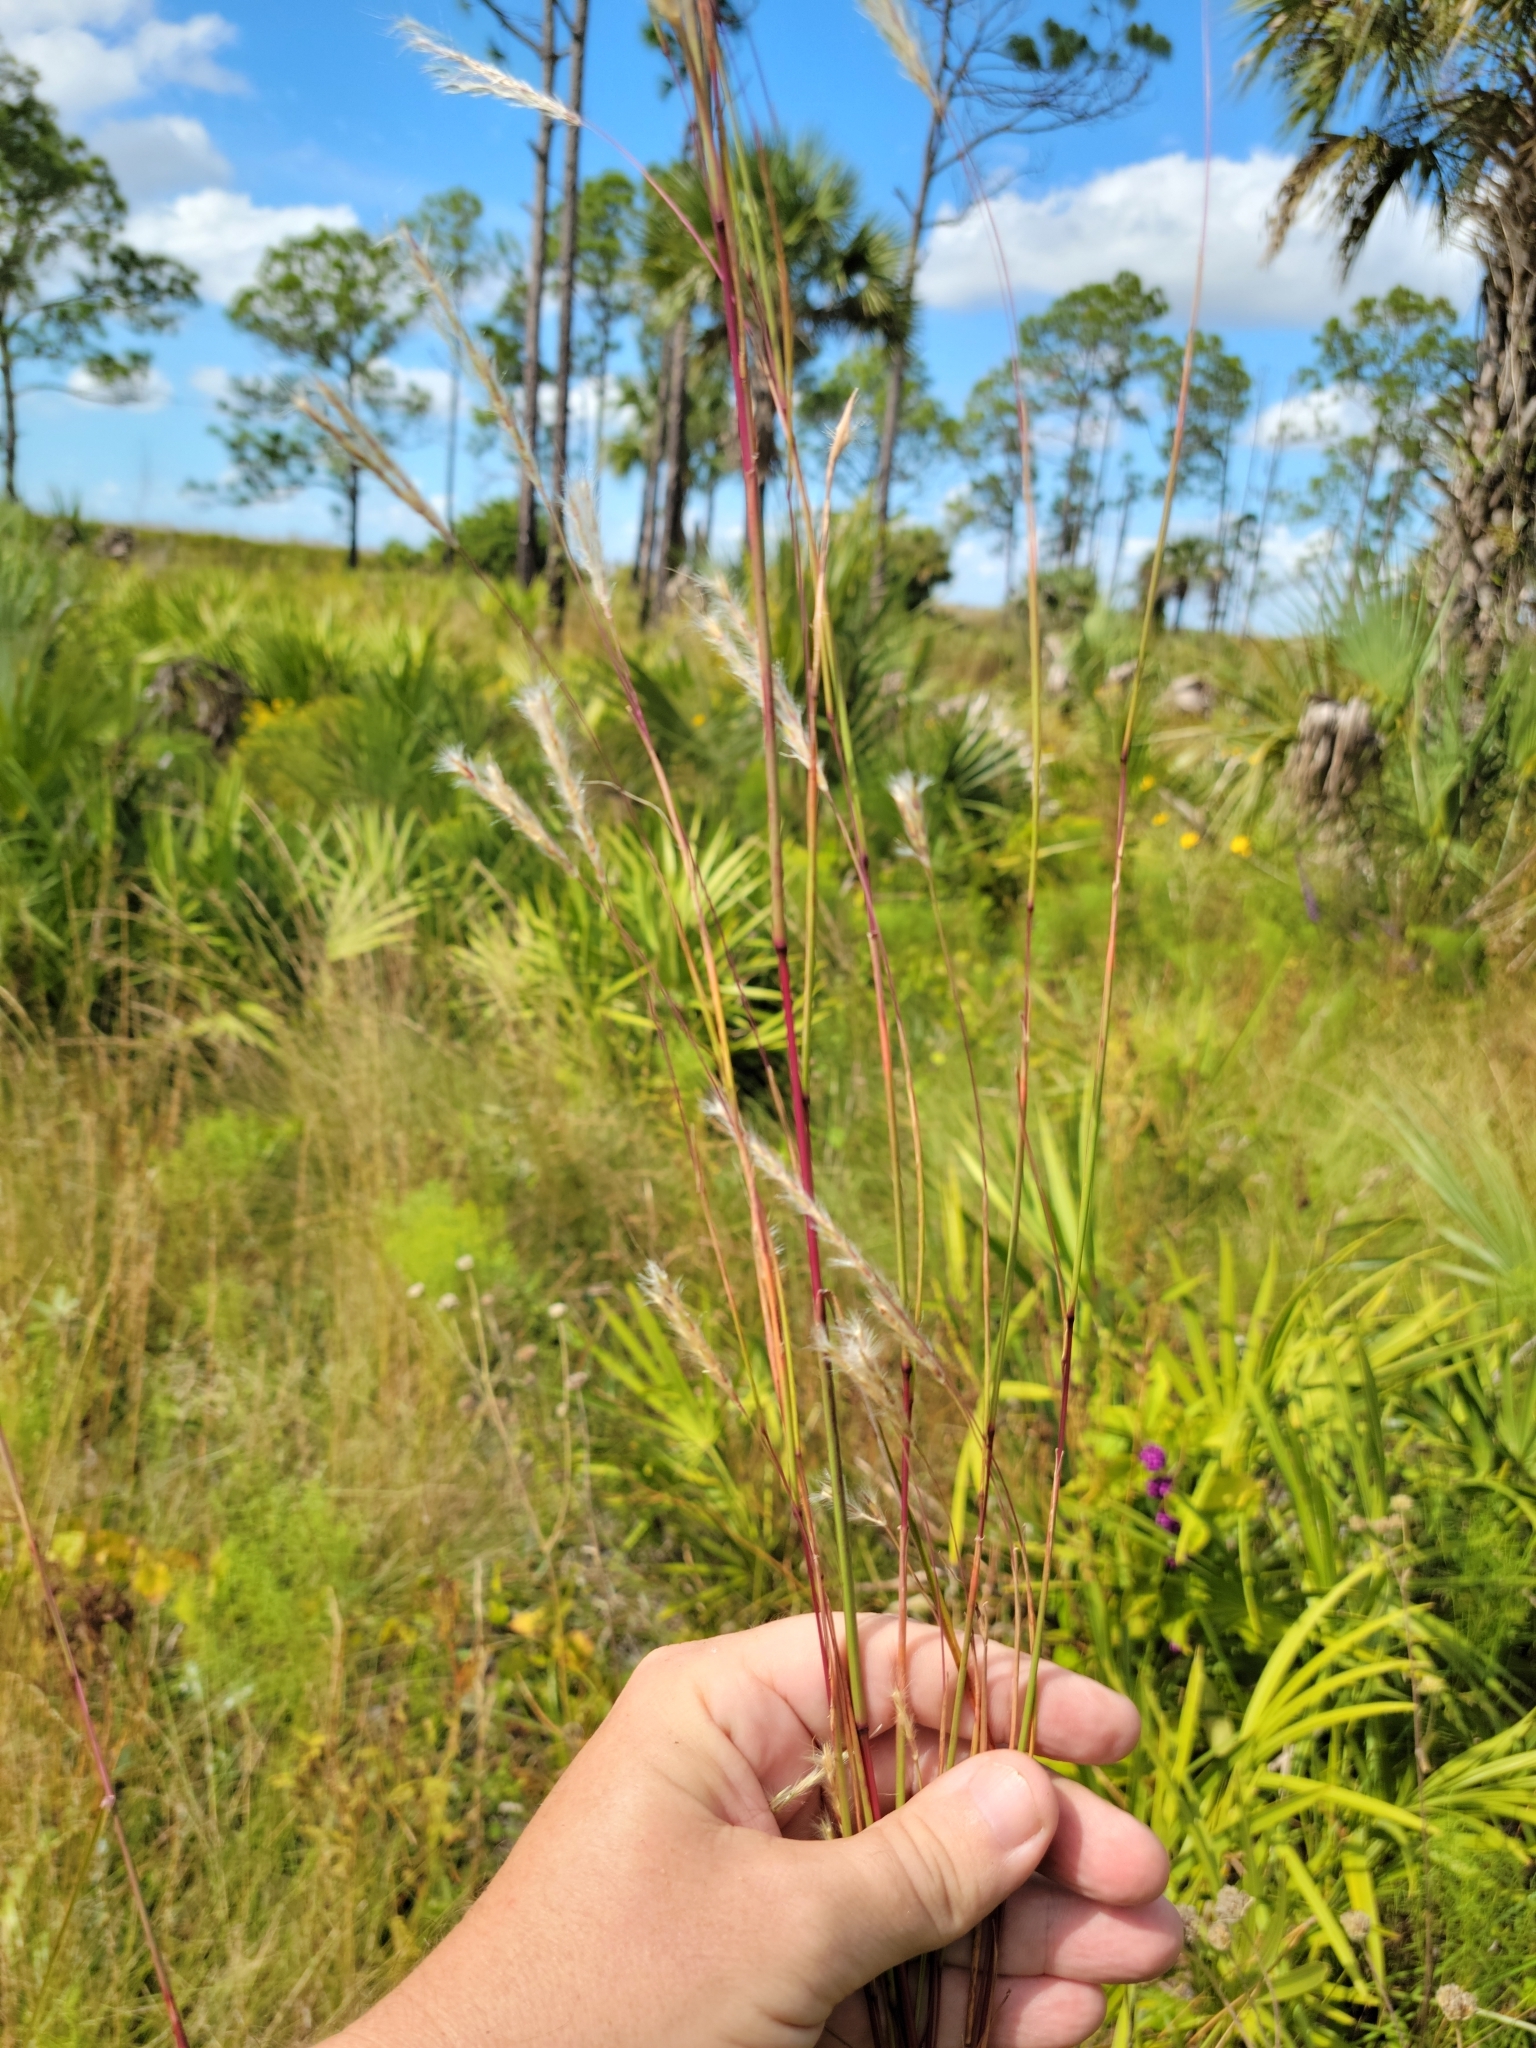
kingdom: Plantae
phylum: Tracheophyta
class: Liliopsida
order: Poales
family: Poaceae
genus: Andropogon
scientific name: Andropogon cabanisii
